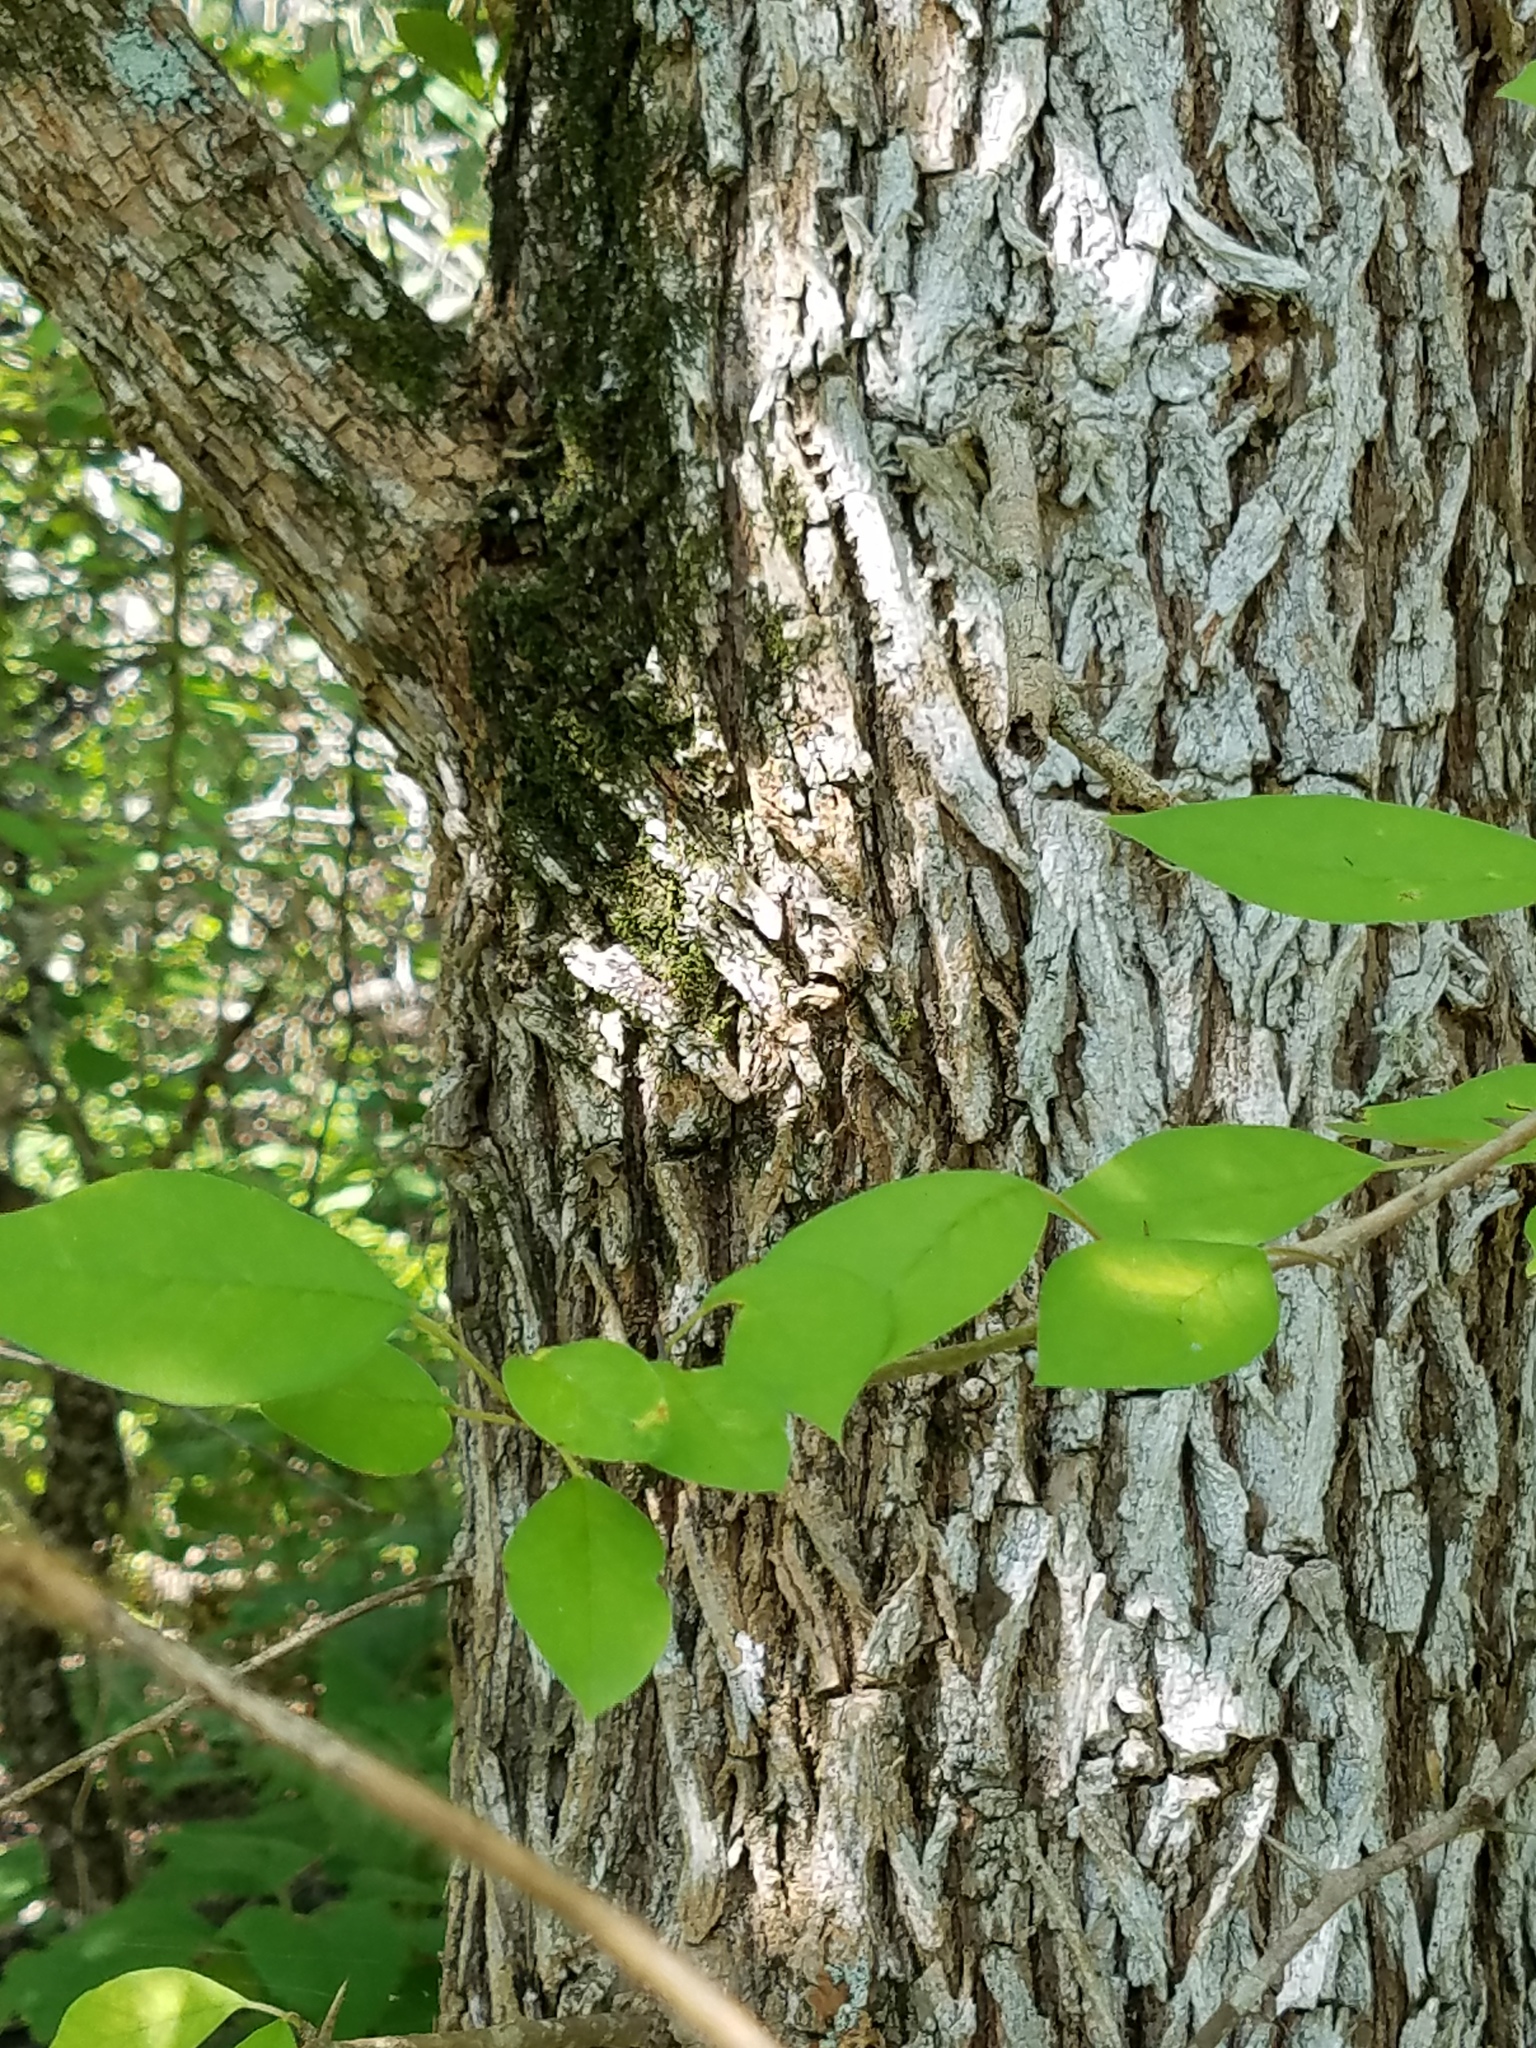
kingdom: Plantae
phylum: Tracheophyta
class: Magnoliopsida
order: Rosales
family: Moraceae
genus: Maclura
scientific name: Maclura pomifera
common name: Osage-orange
